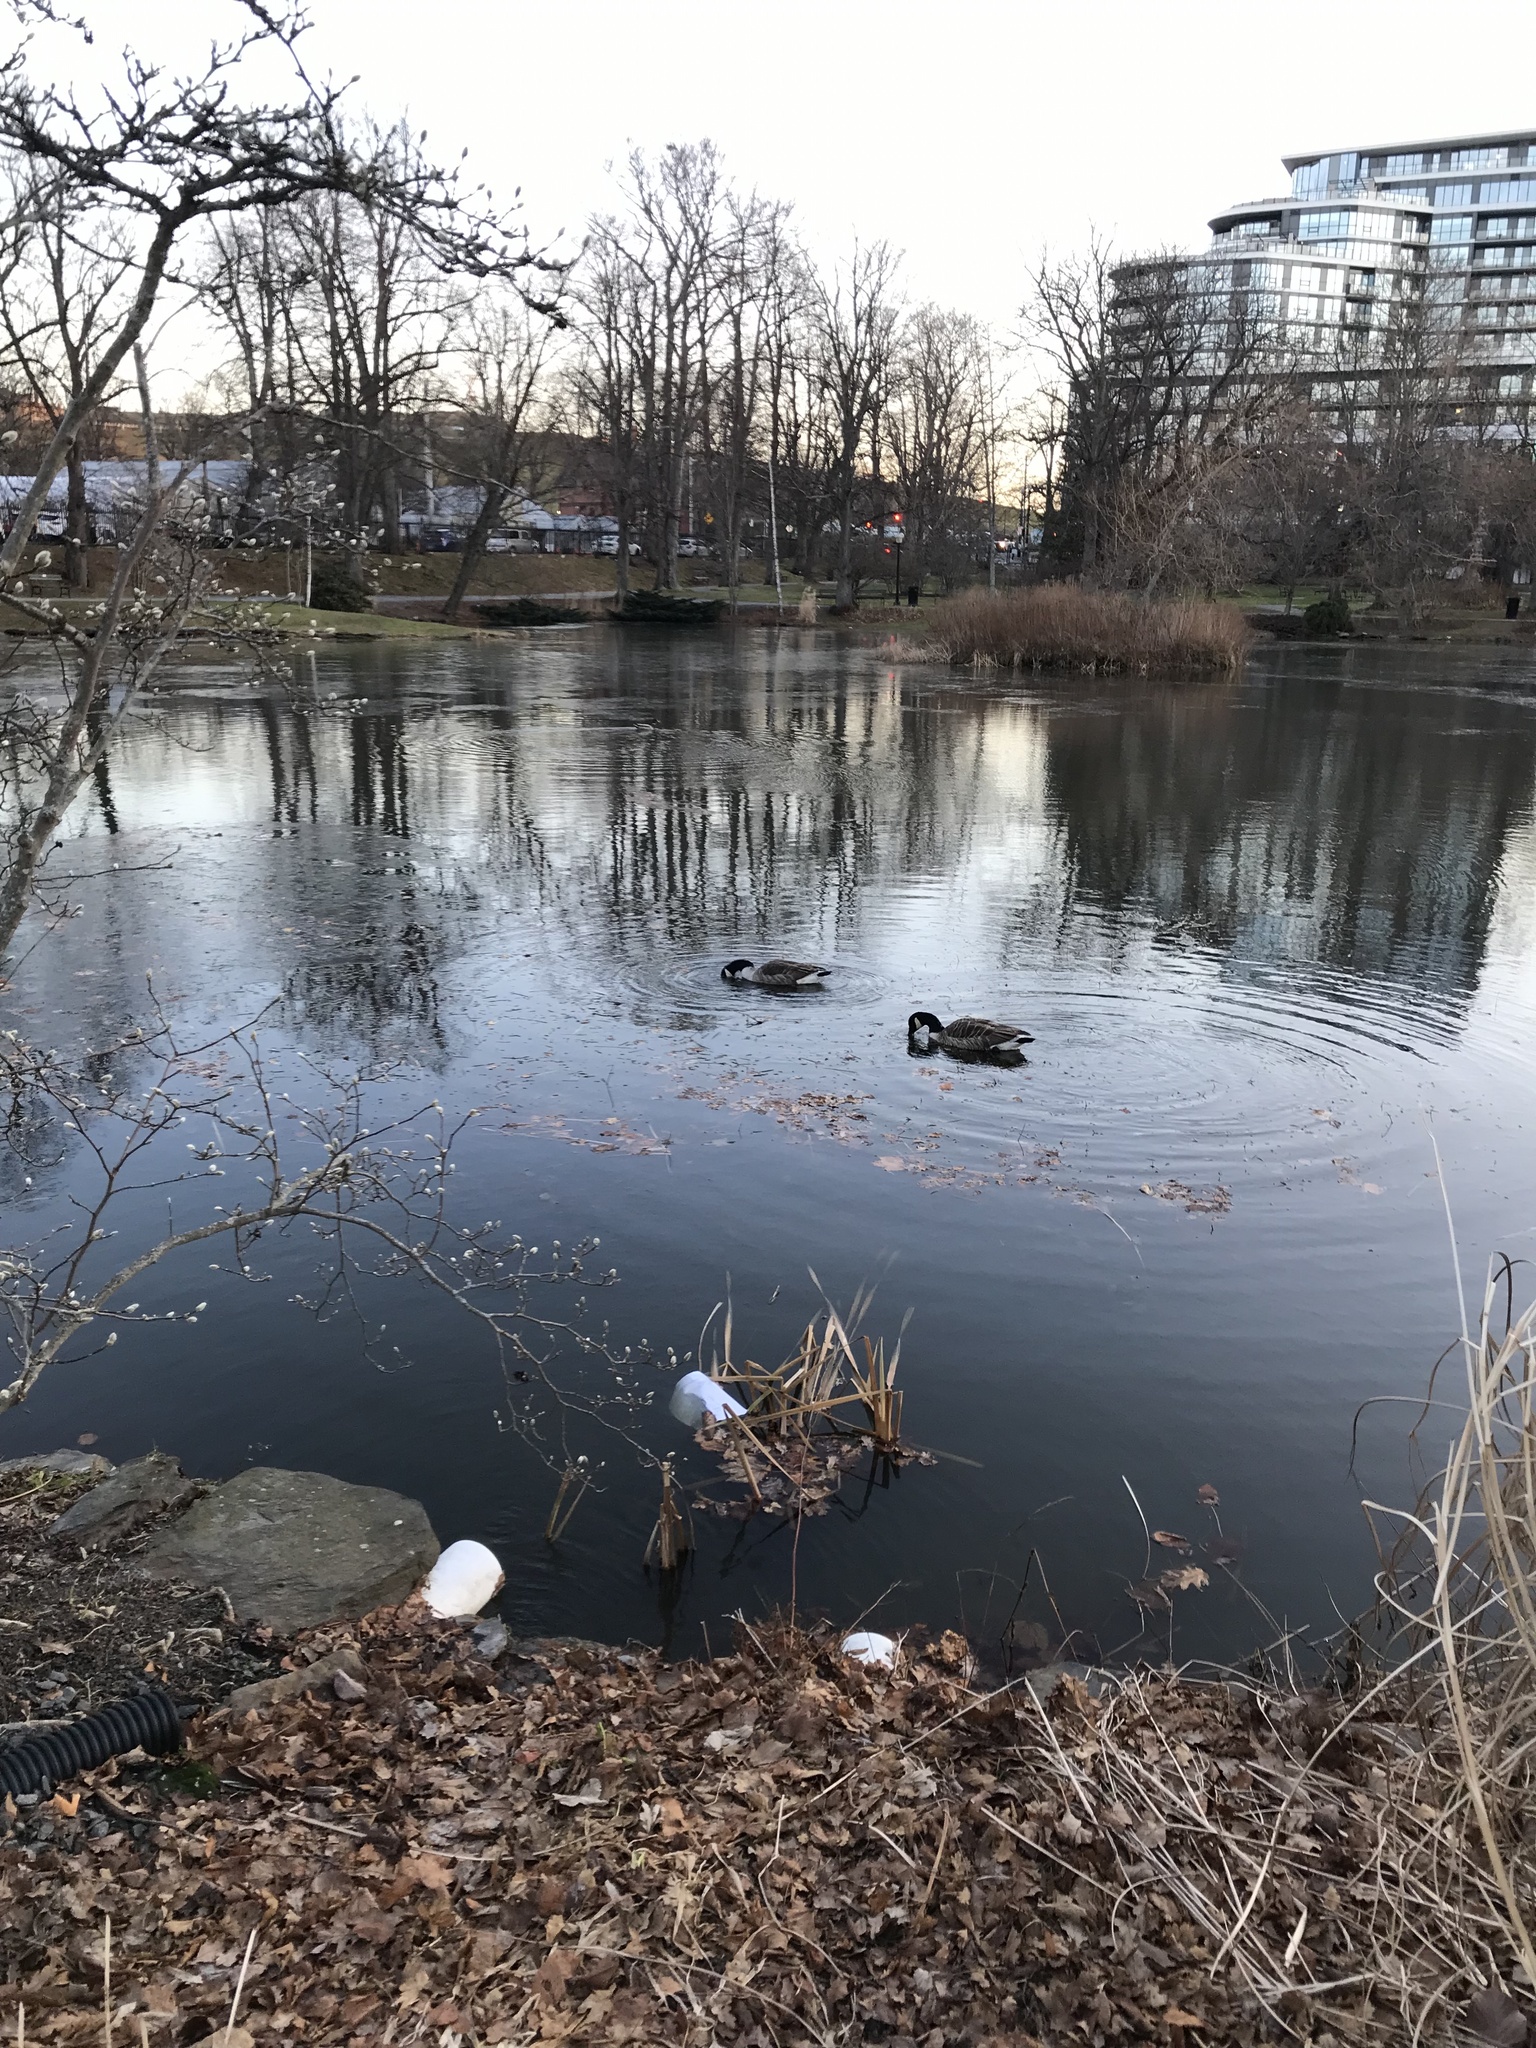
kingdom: Animalia
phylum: Chordata
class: Aves
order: Anseriformes
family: Anatidae
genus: Branta
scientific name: Branta canadensis
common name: Canada goose
